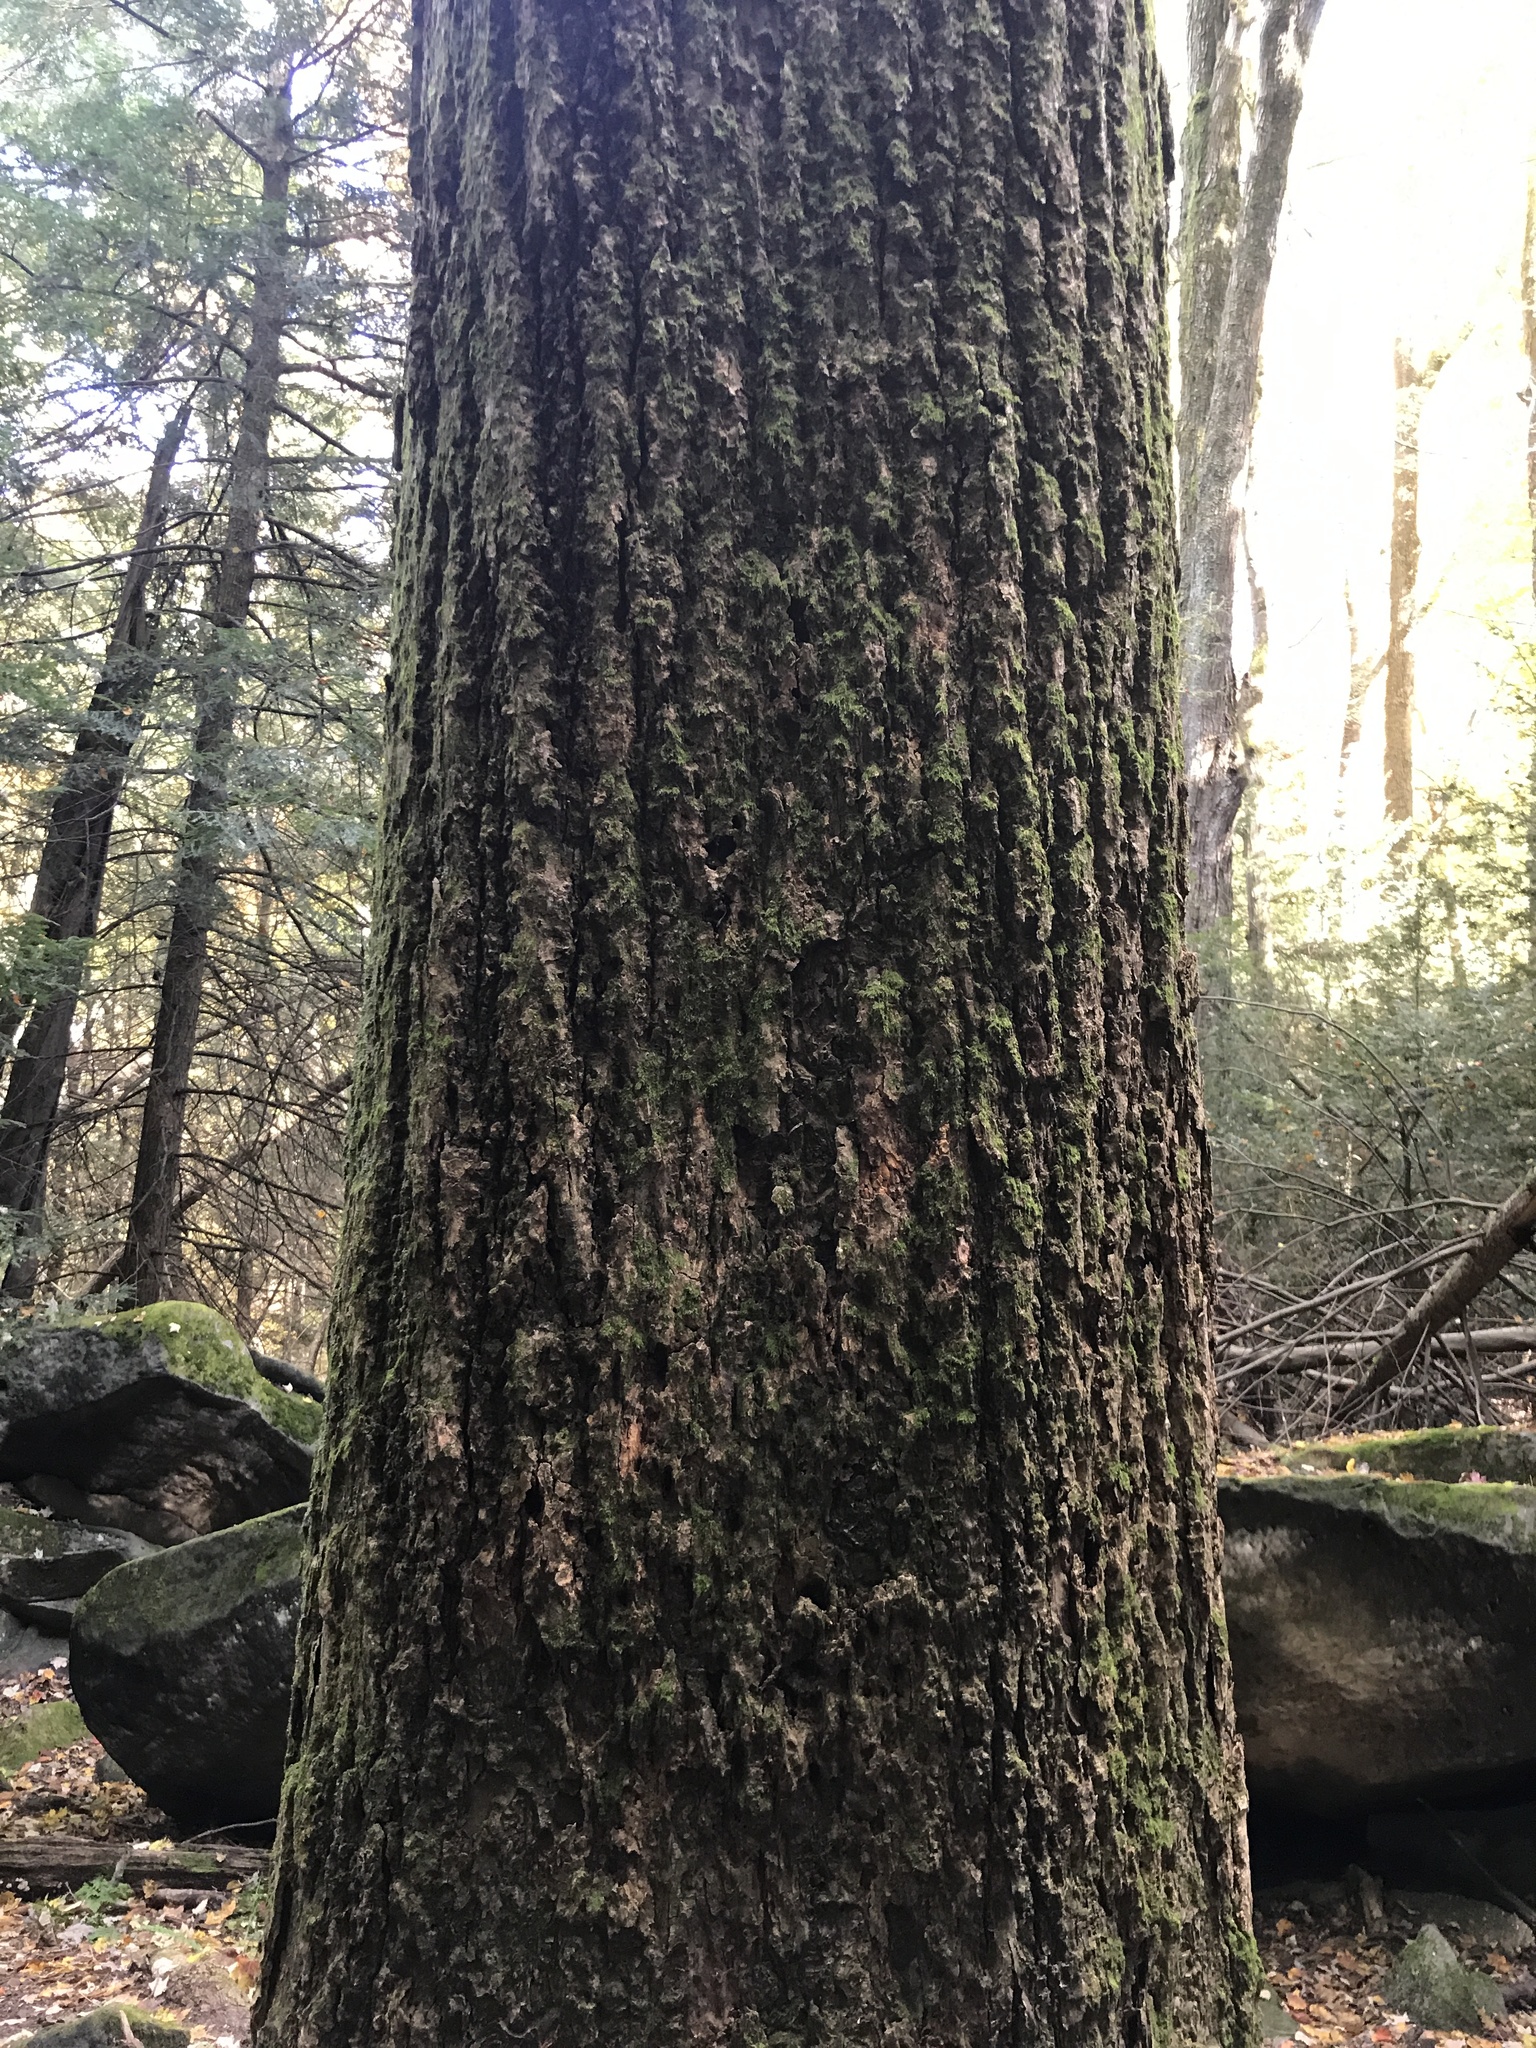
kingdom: Plantae
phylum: Tracheophyta
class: Magnoliopsida
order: Magnoliales
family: Magnoliaceae
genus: Liriodendron
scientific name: Liriodendron tulipifera
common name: Tulip tree
